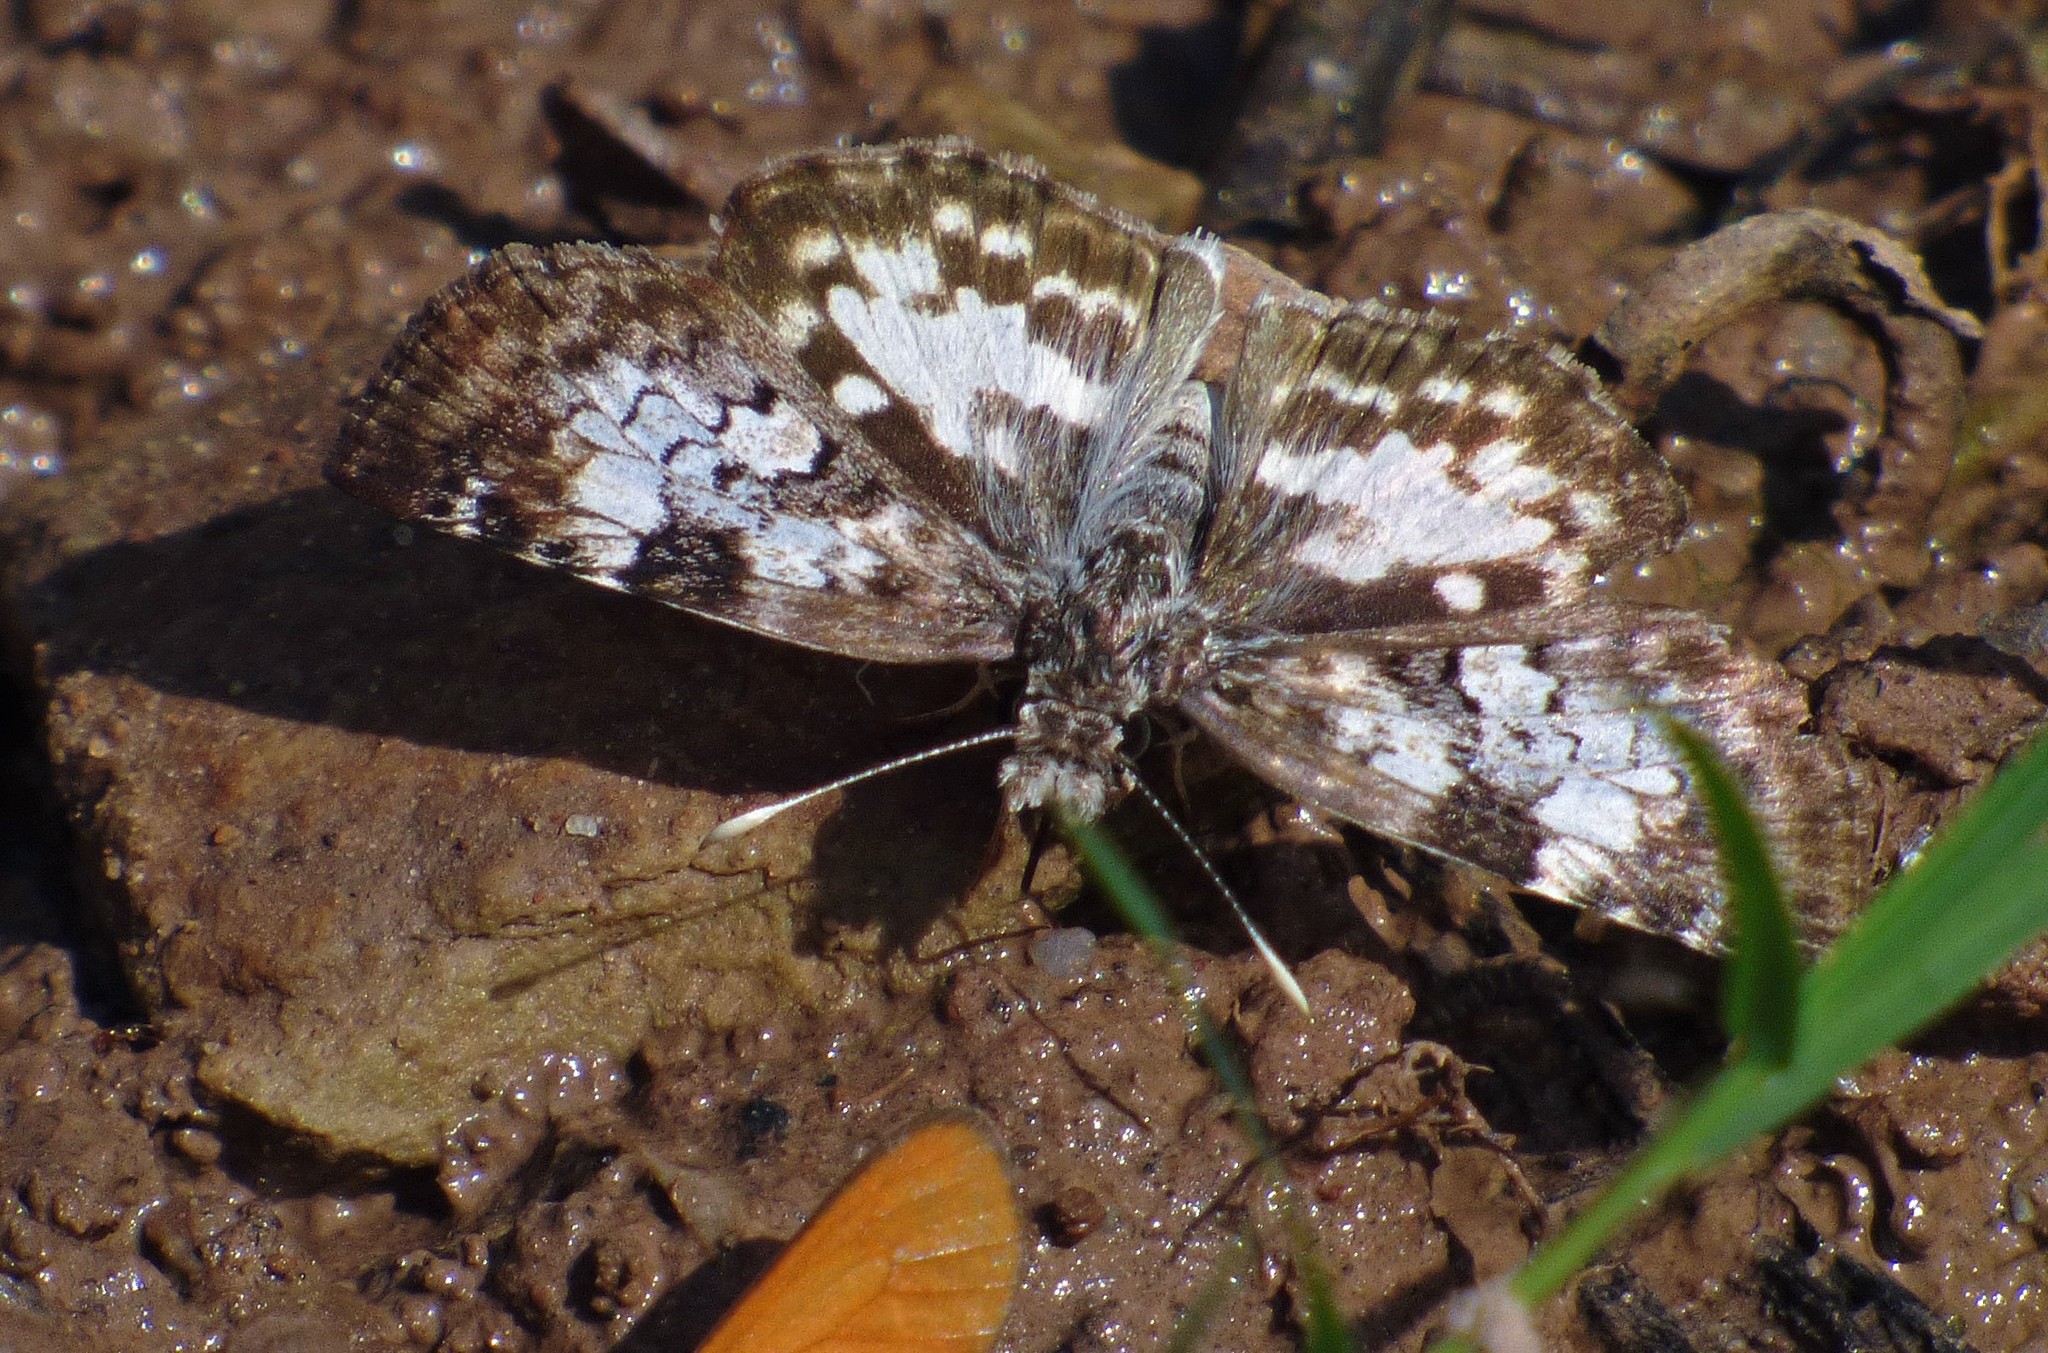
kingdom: Animalia
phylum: Arthropoda
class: Insecta
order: Lepidoptera
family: Hesperiidae
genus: Chiomara
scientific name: Chiomara asychis
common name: White-patterned skipper
